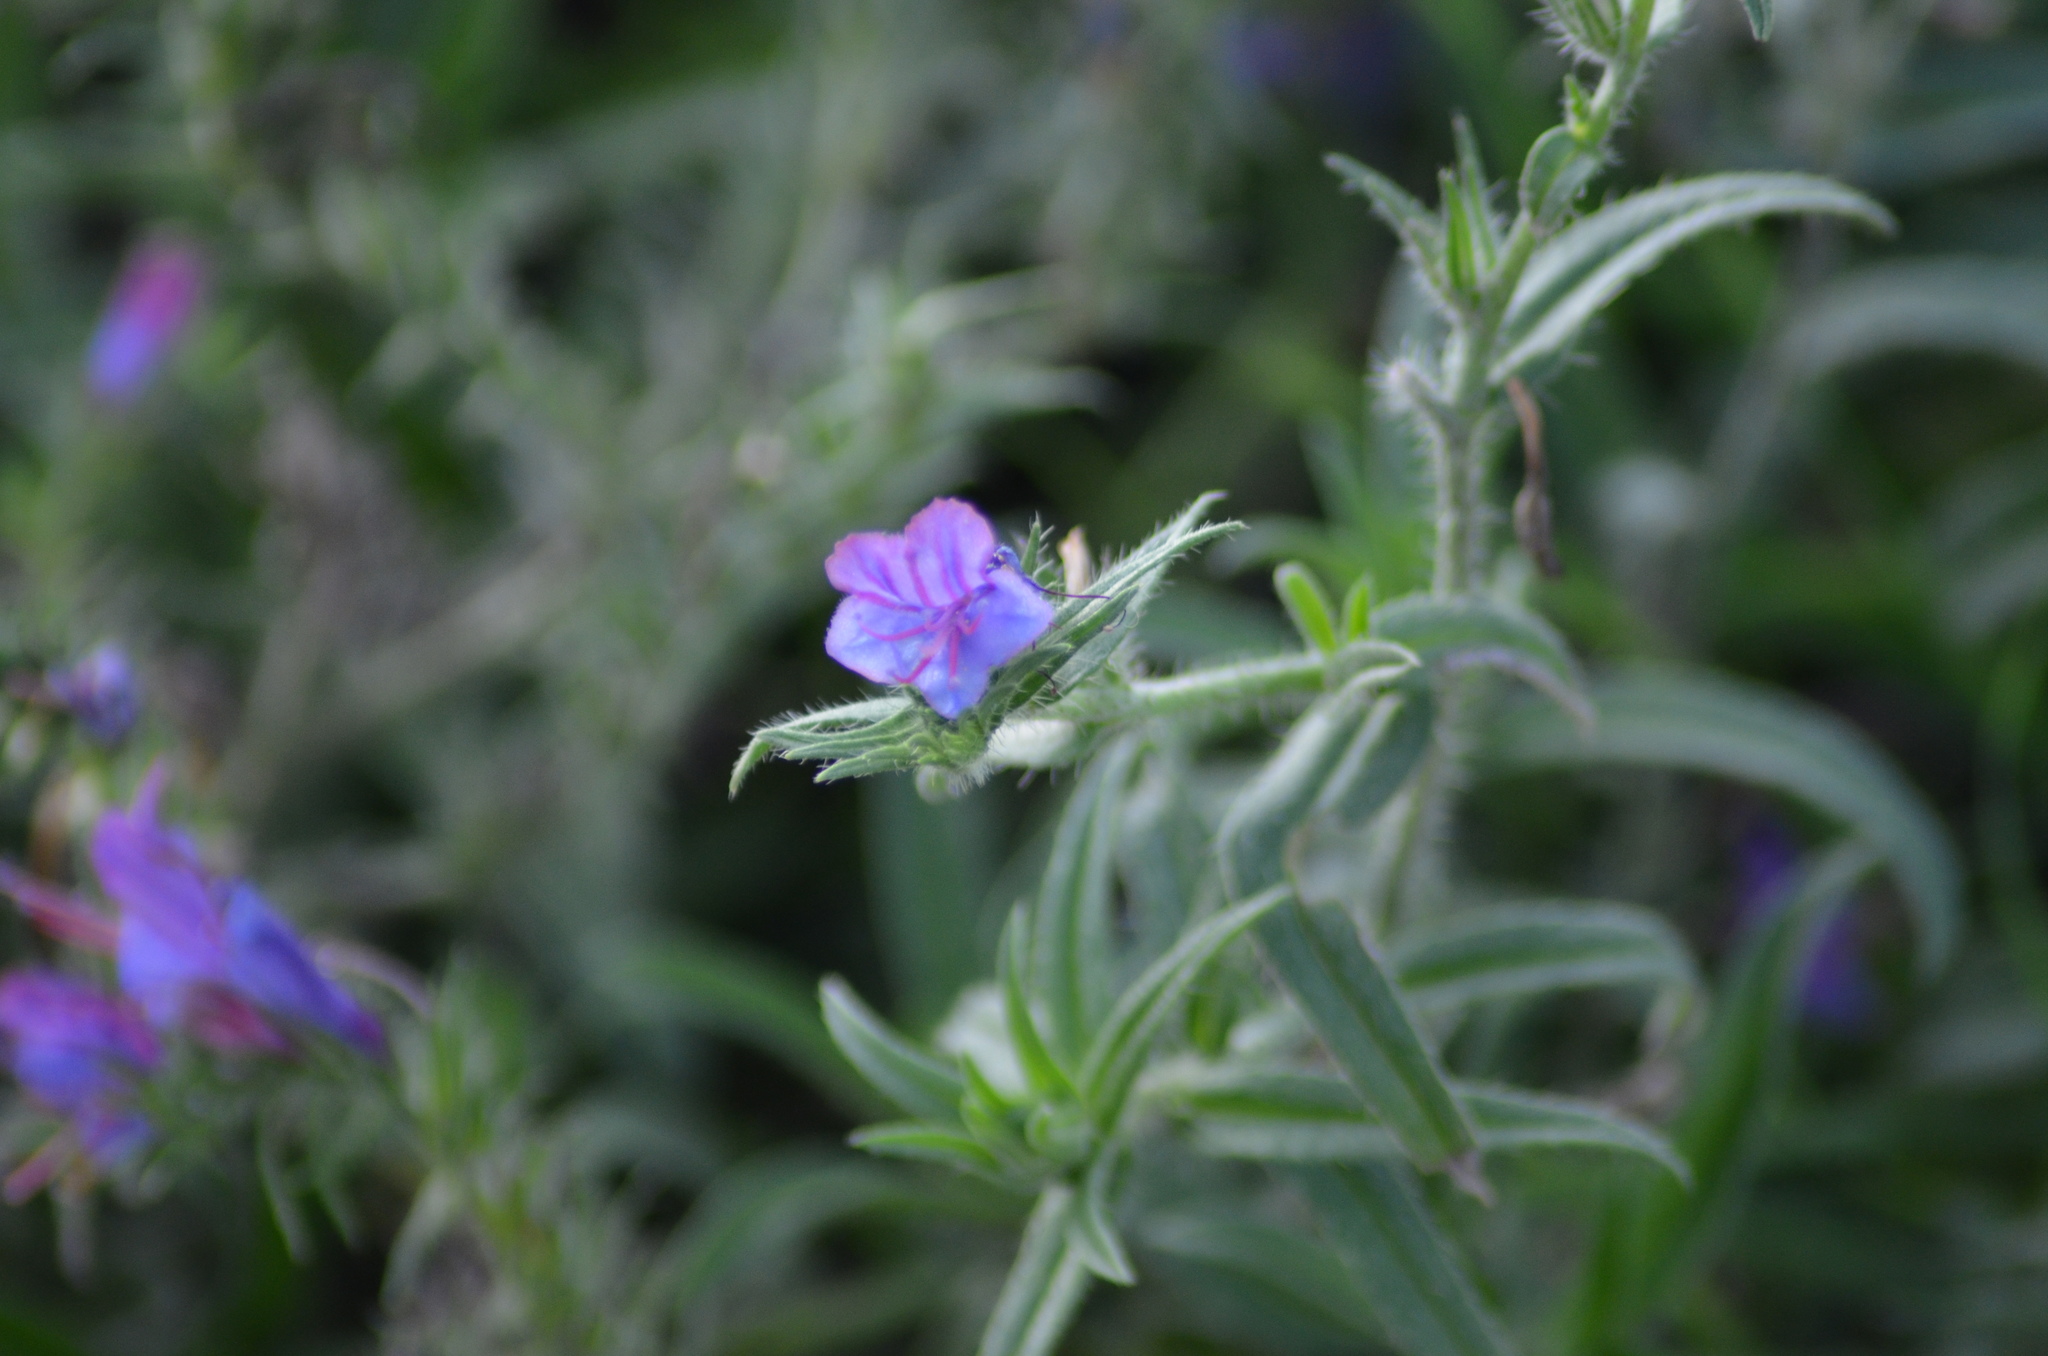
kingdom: Plantae
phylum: Tracheophyta
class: Magnoliopsida
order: Boraginales
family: Boraginaceae
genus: Echium
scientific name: Echium vulgare
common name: Common viper's bugloss
